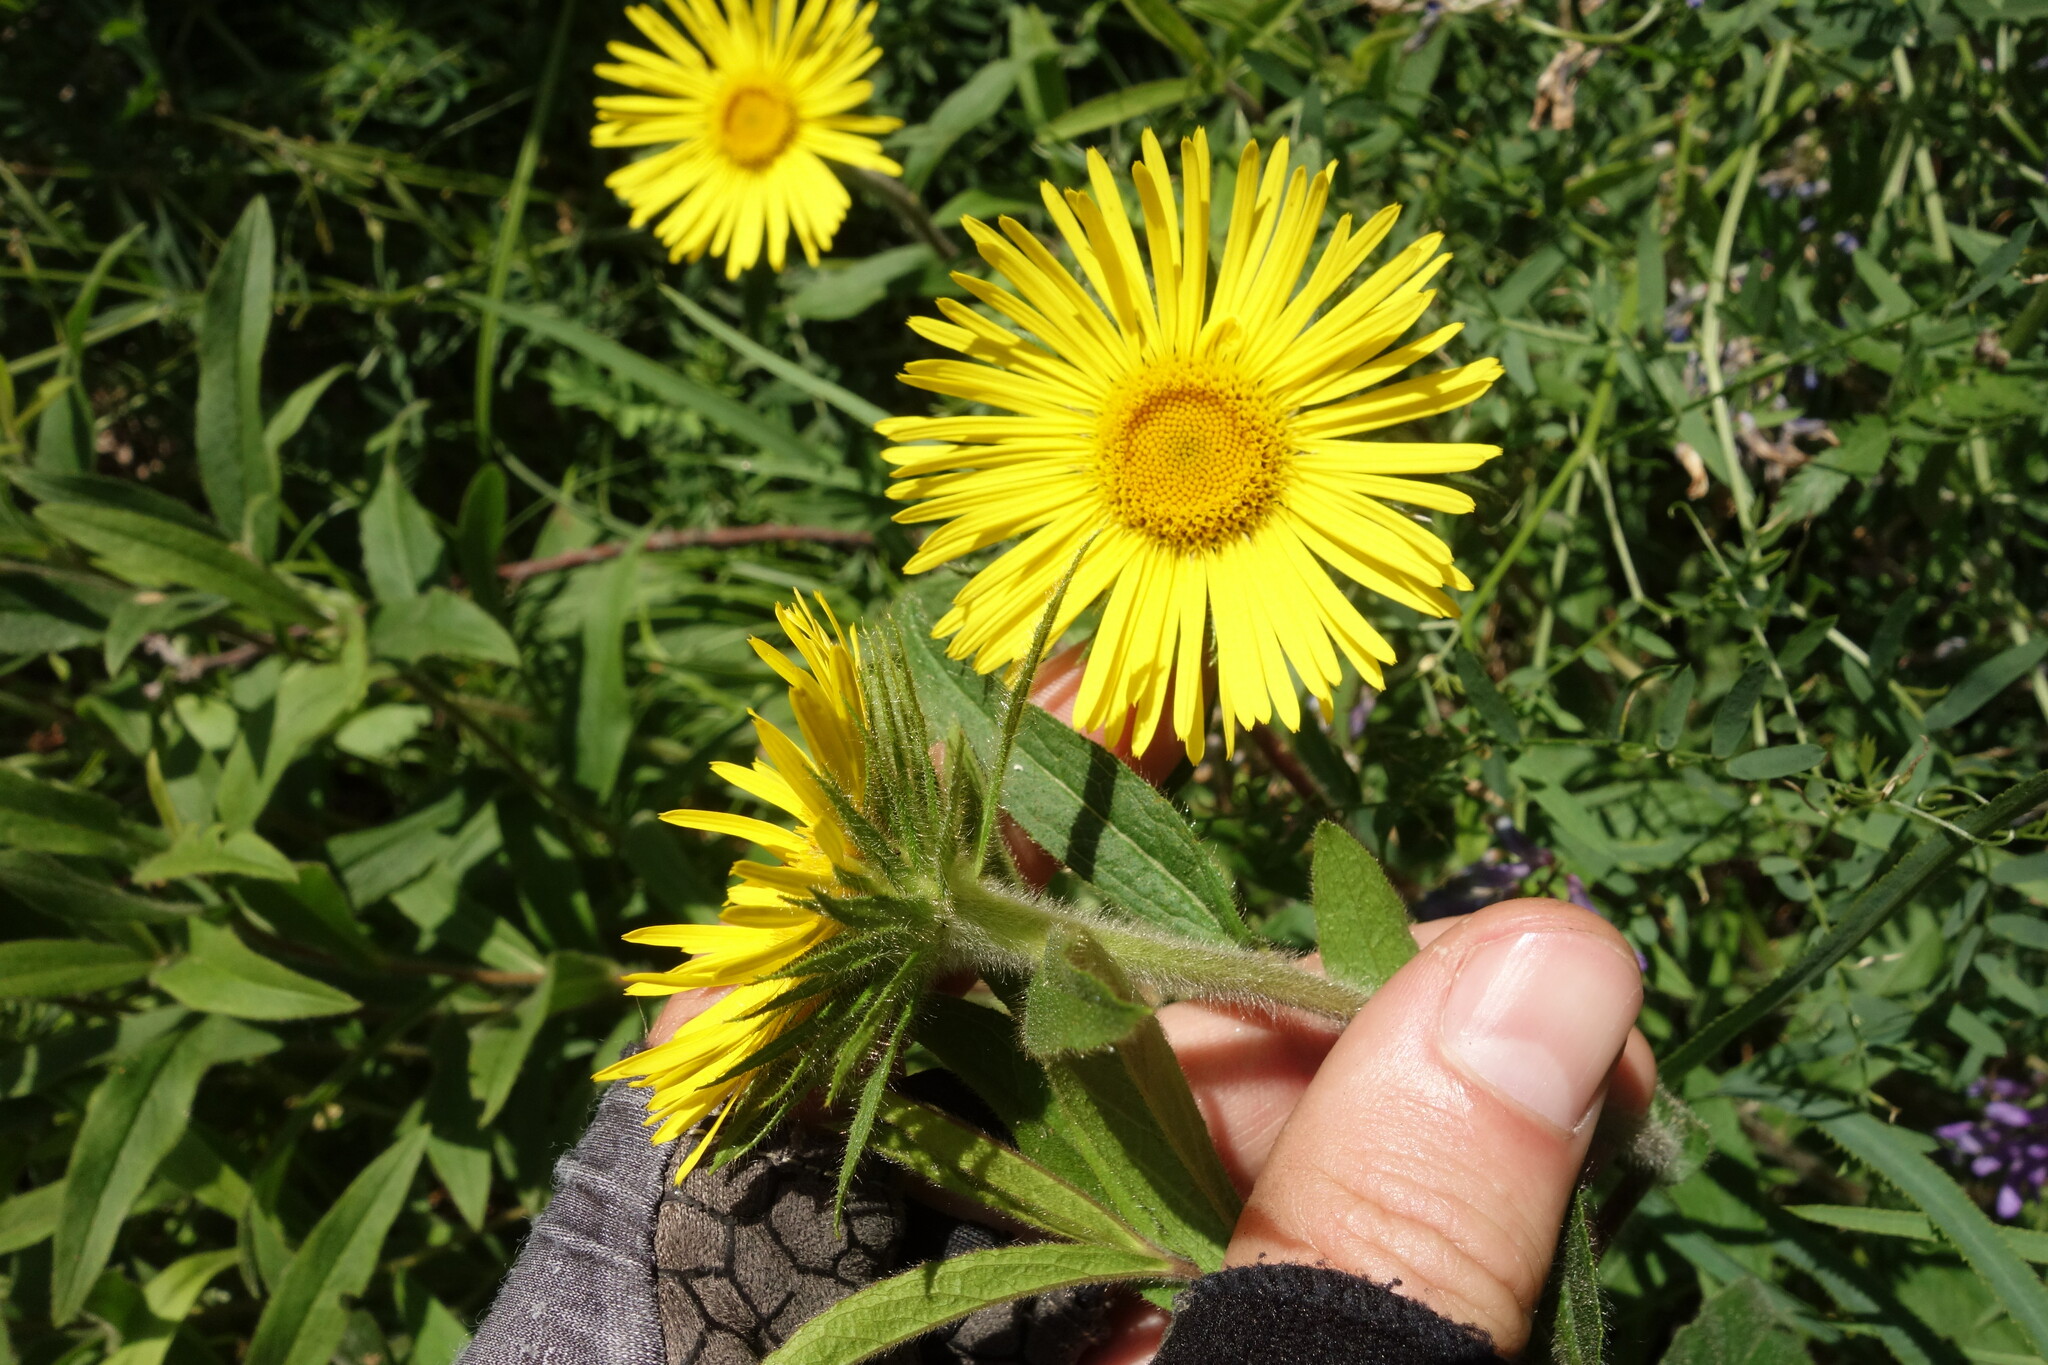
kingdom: Plantae
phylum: Tracheophyta
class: Magnoliopsida
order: Asterales
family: Asteraceae
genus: Pentanema
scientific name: Pentanema hirtum
